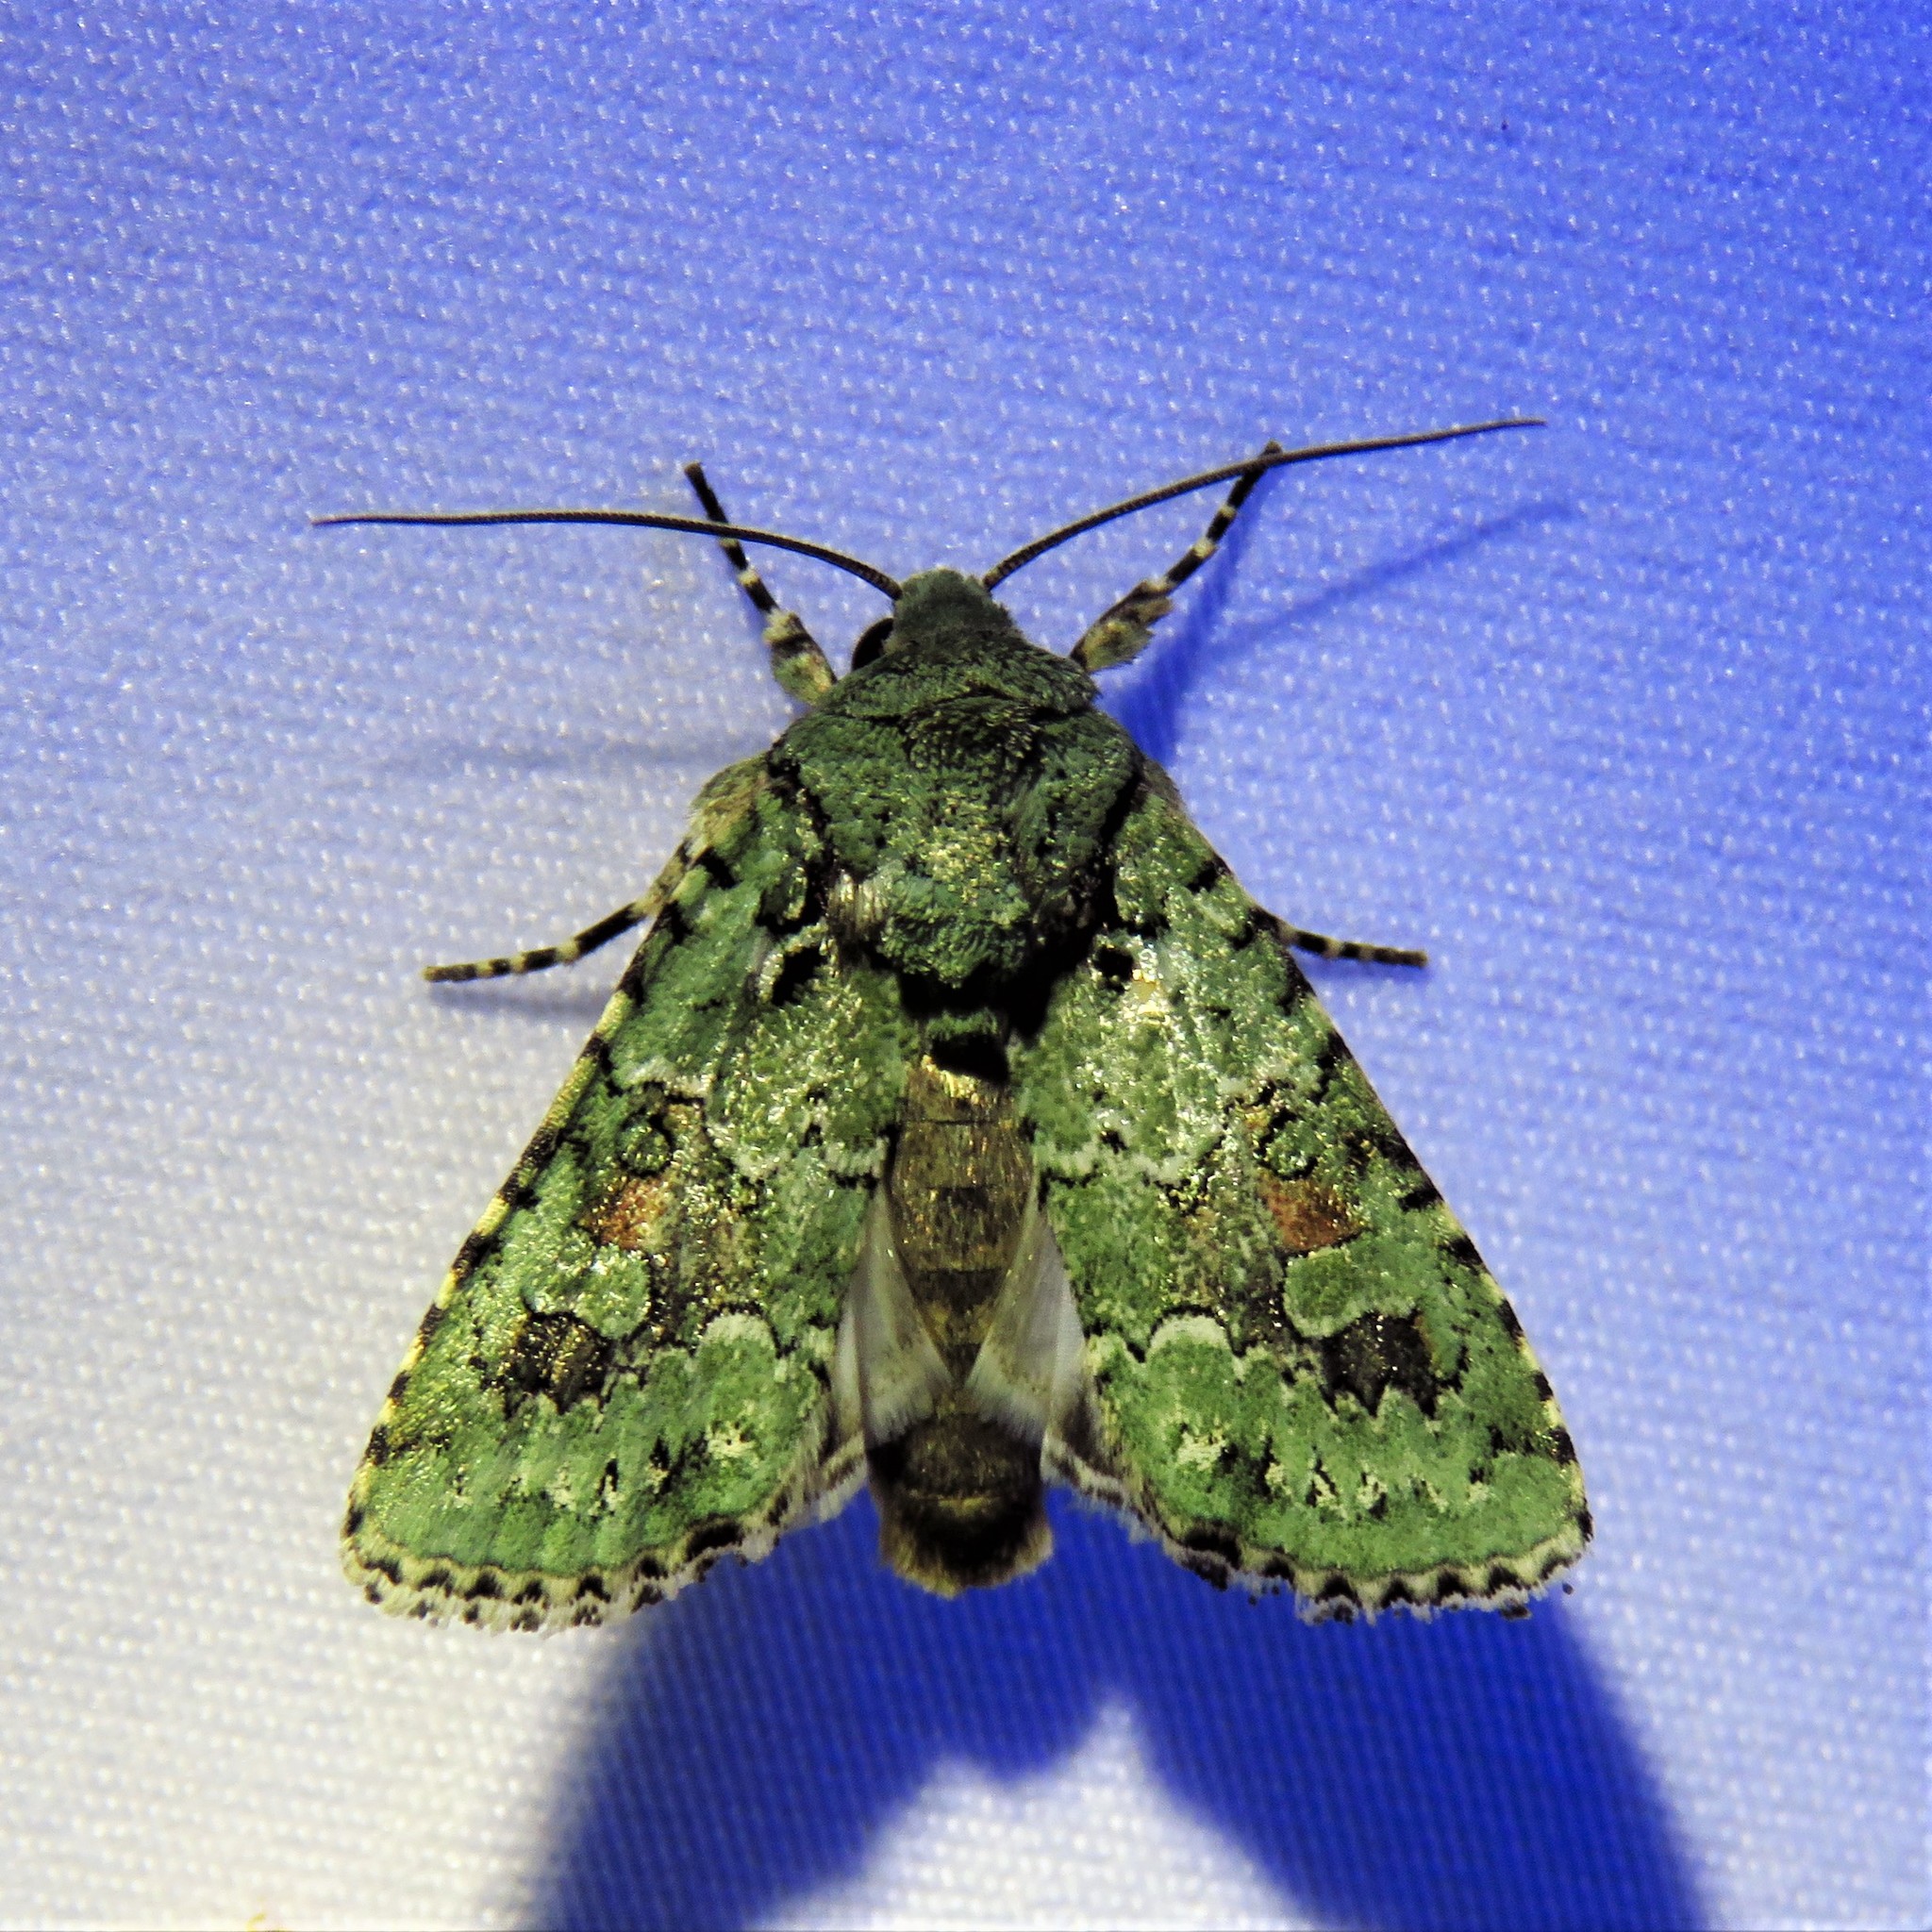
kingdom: Animalia
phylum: Arthropoda
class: Insecta
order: Lepidoptera
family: Noctuidae
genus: Lacinipolia
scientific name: Lacinipolia laudabilis
